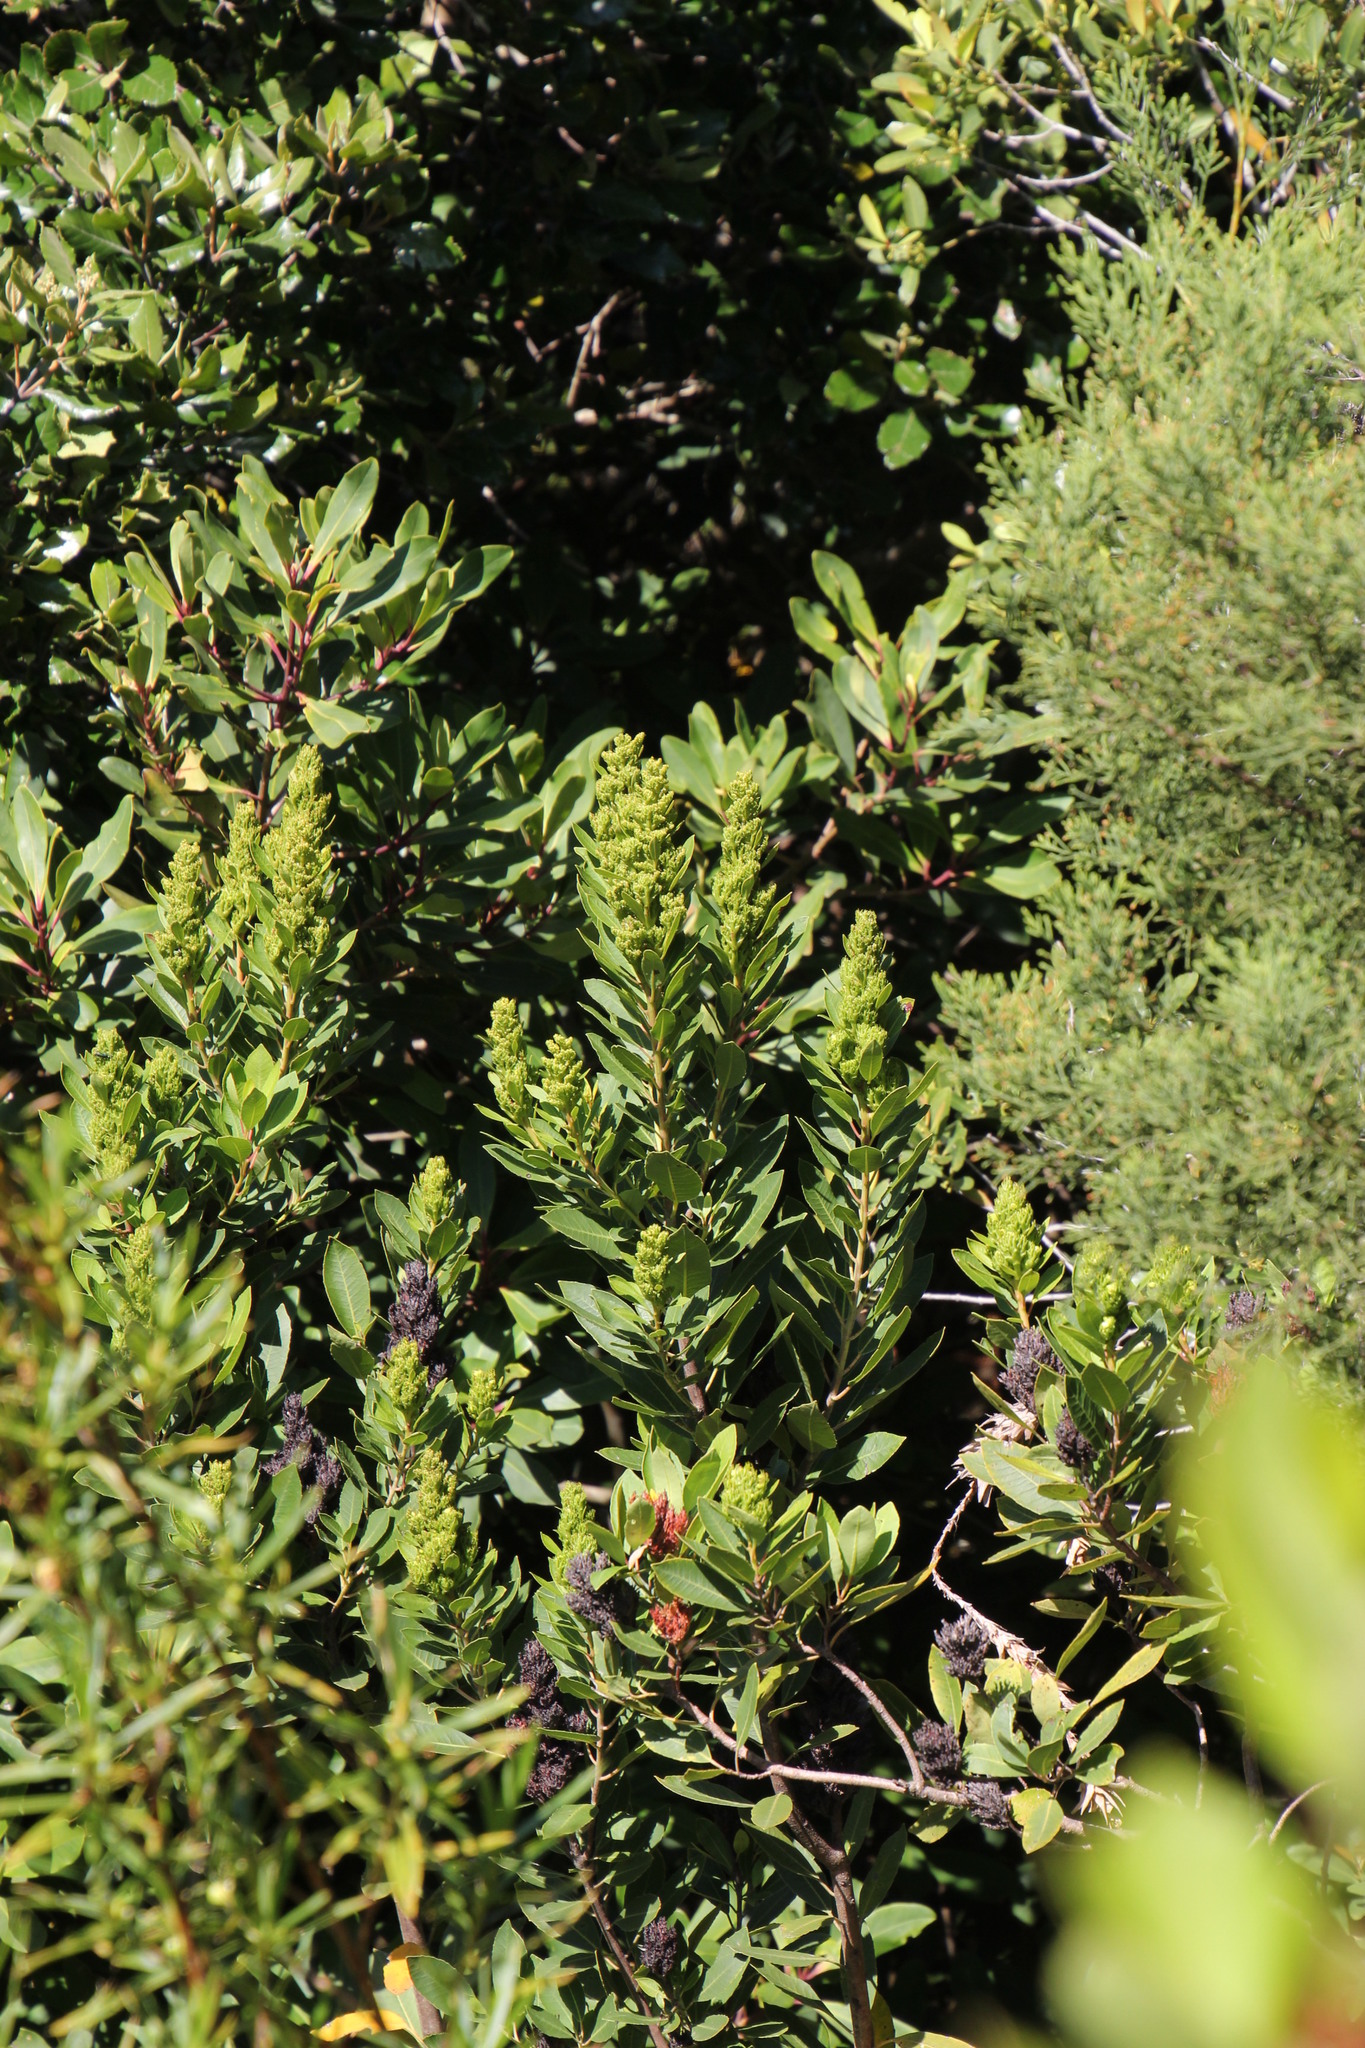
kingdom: Plantae
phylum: Tracheophyta
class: Magnoliopsida
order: Sapindales
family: Anacardiaceae
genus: Laurophyllus
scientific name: Laurophyllus capensis
